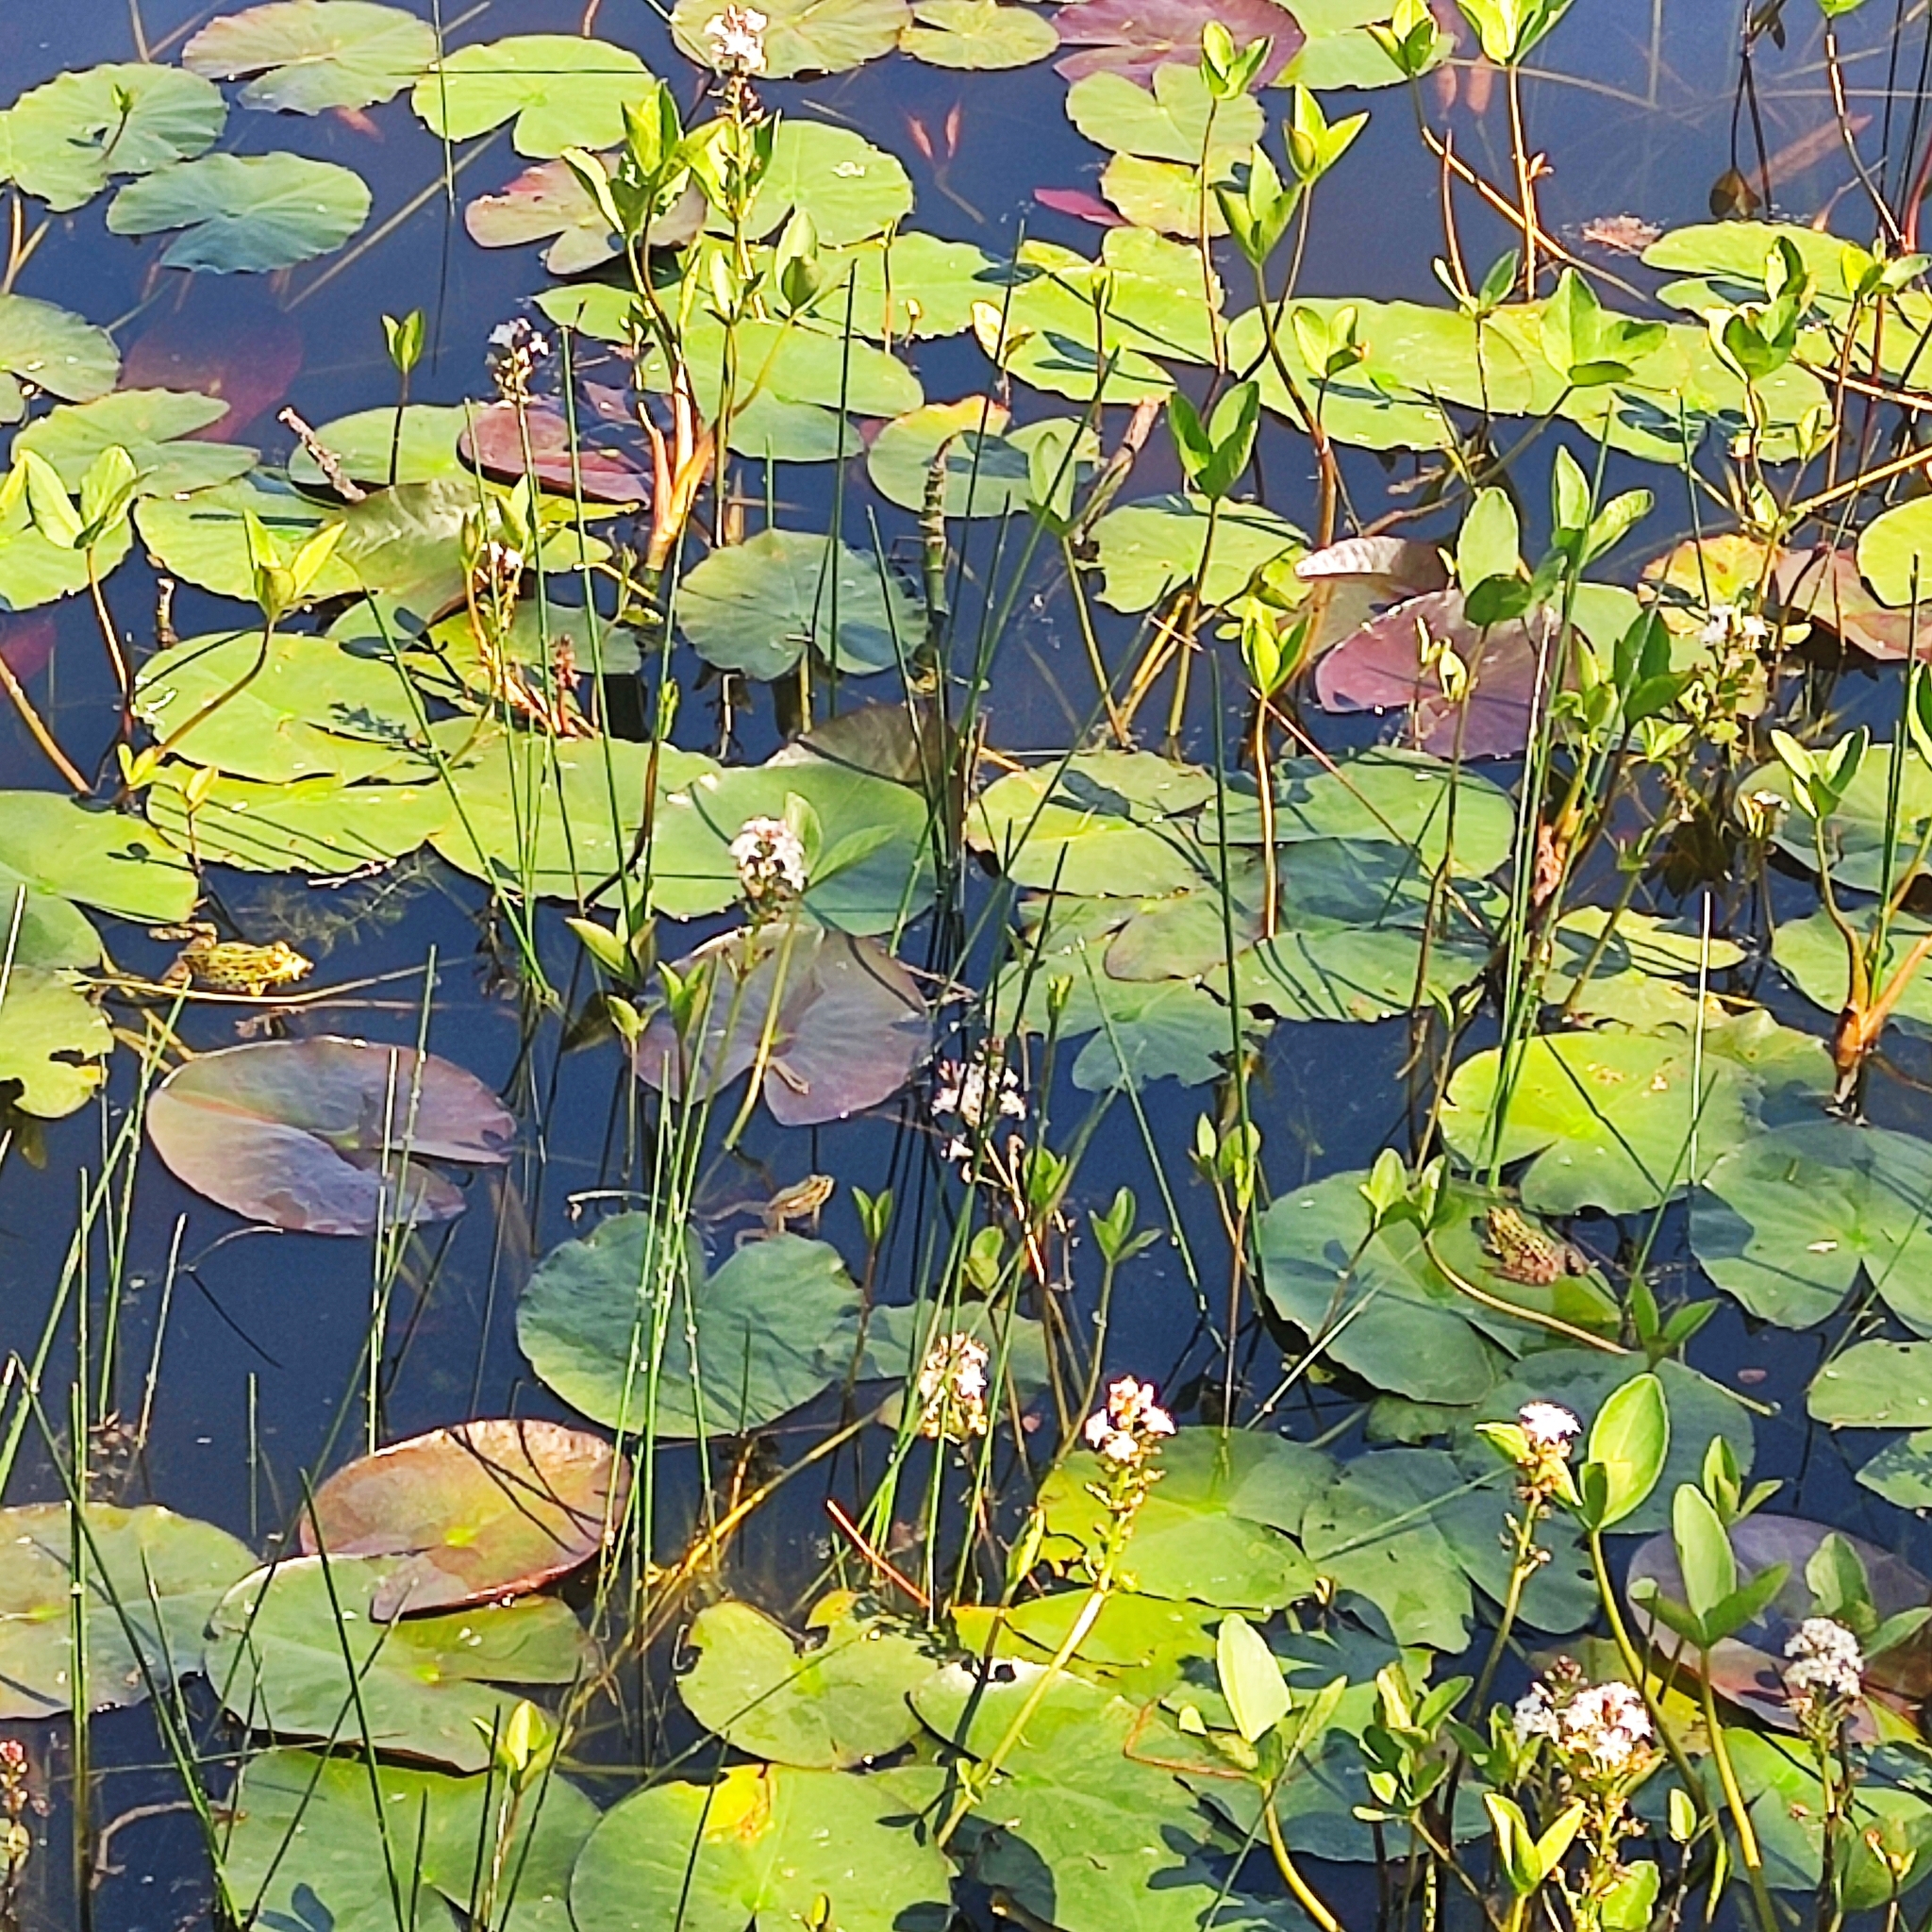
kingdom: Animalia
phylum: Chordata
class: Amphibia
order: Anura
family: Ranidae
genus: Pelophylax
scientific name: Pelophylax perezi
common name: Perez's frog
